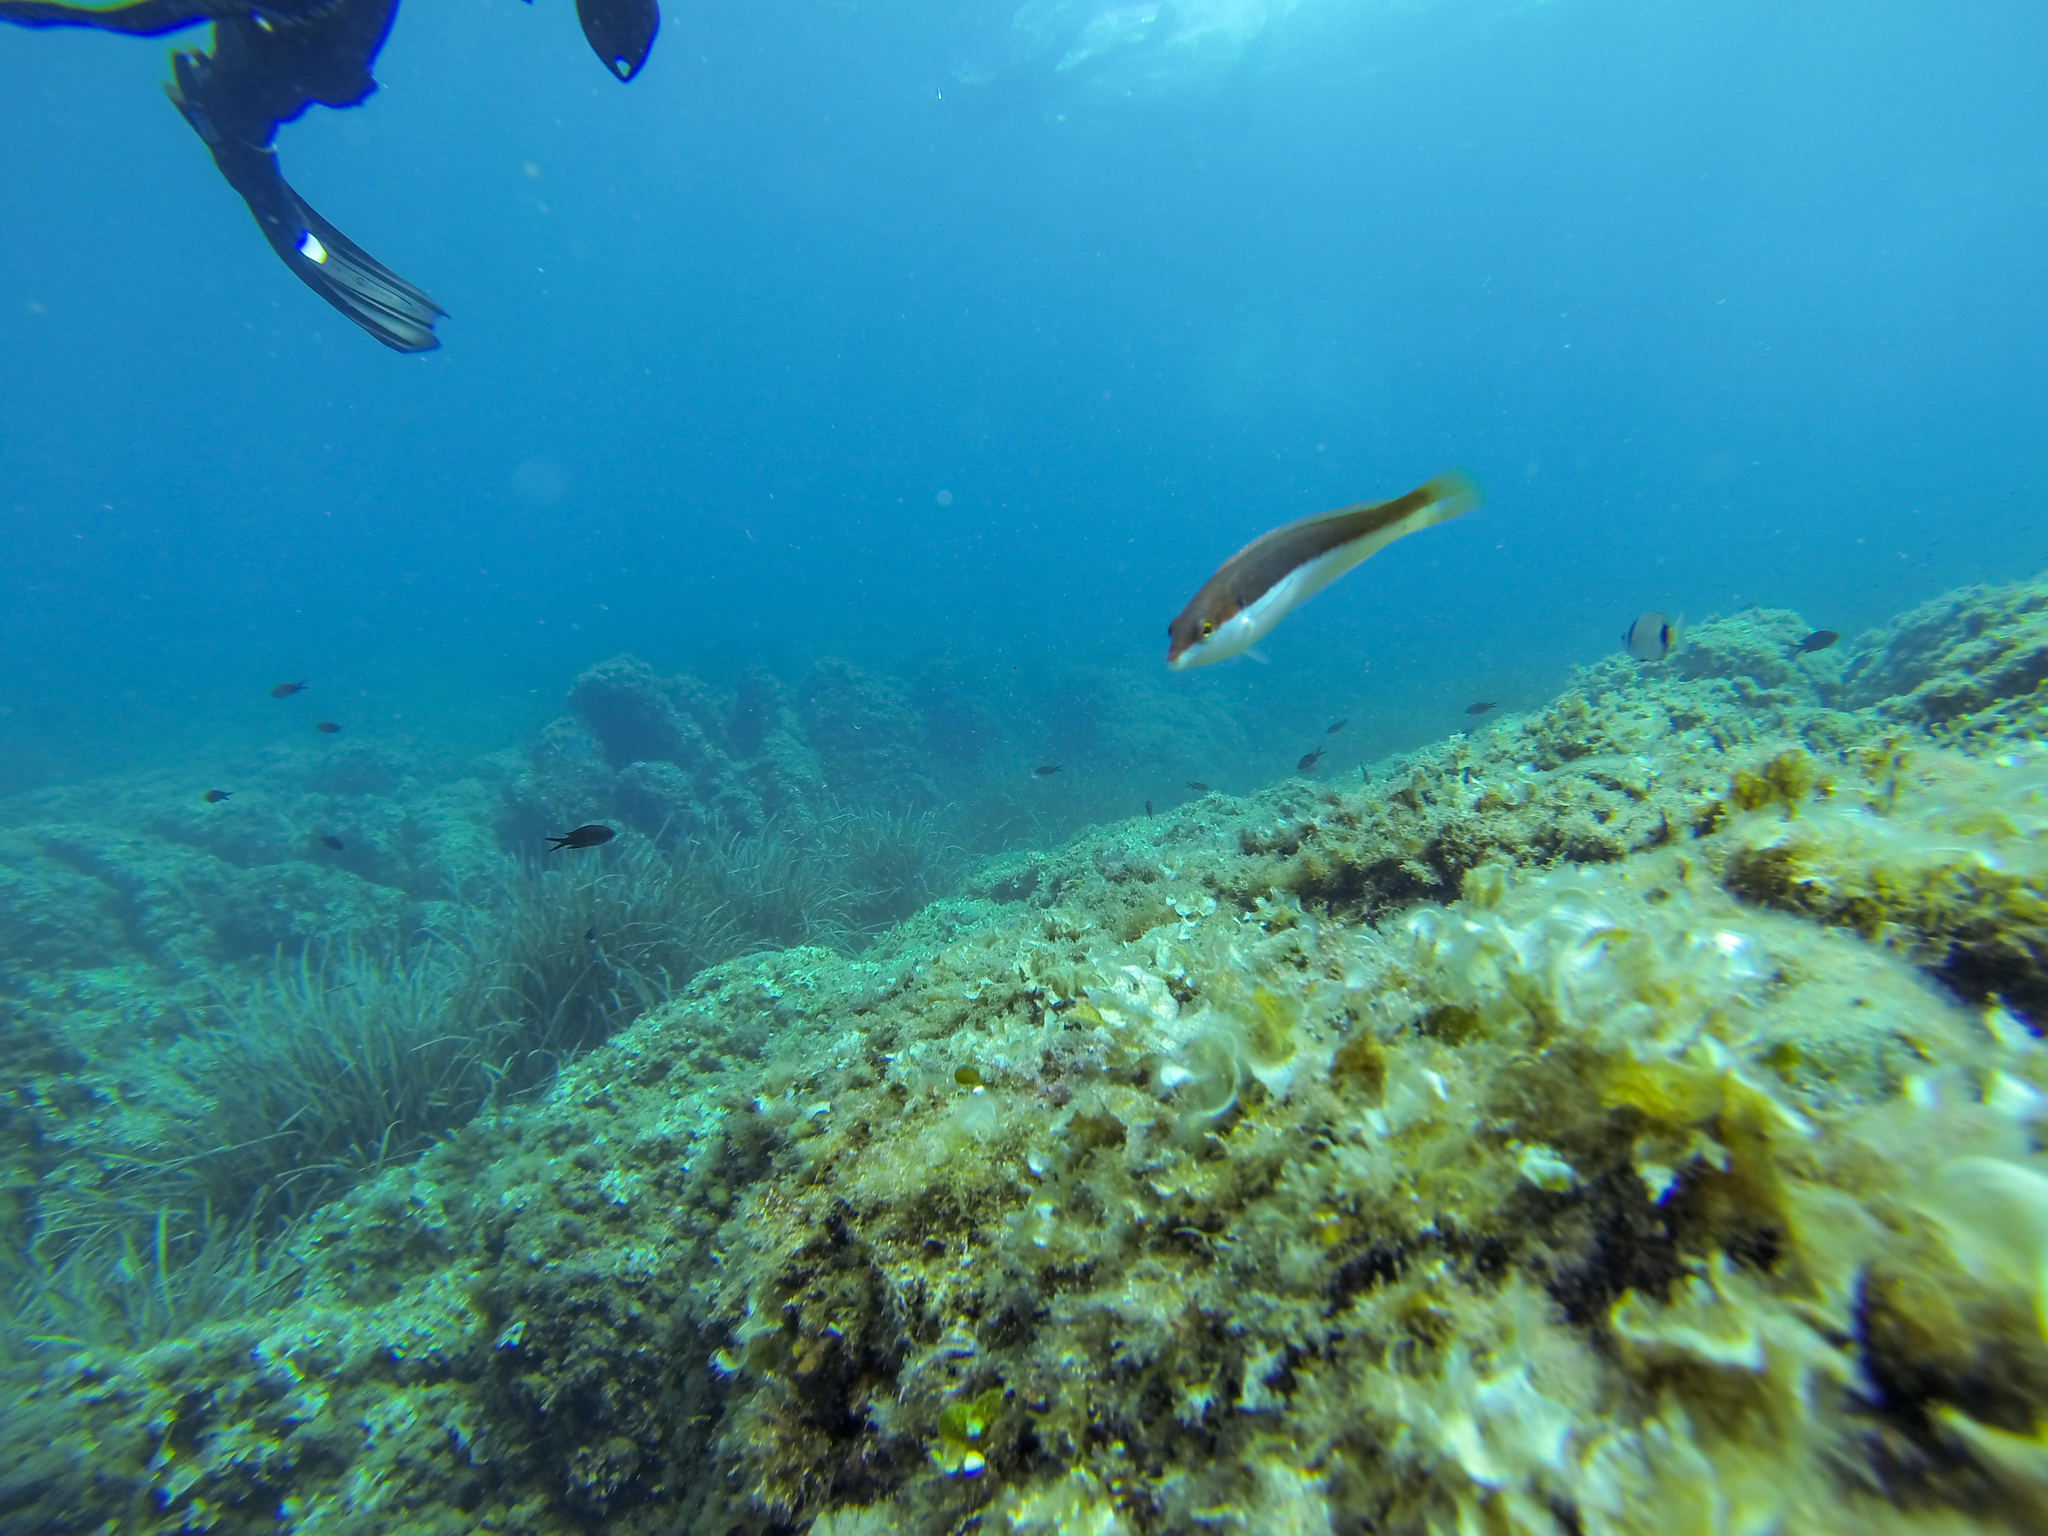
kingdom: Animalia
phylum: Chordata
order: Perciformes
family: Labridae
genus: Coris
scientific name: Coris julis
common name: Rainbow wrasse
